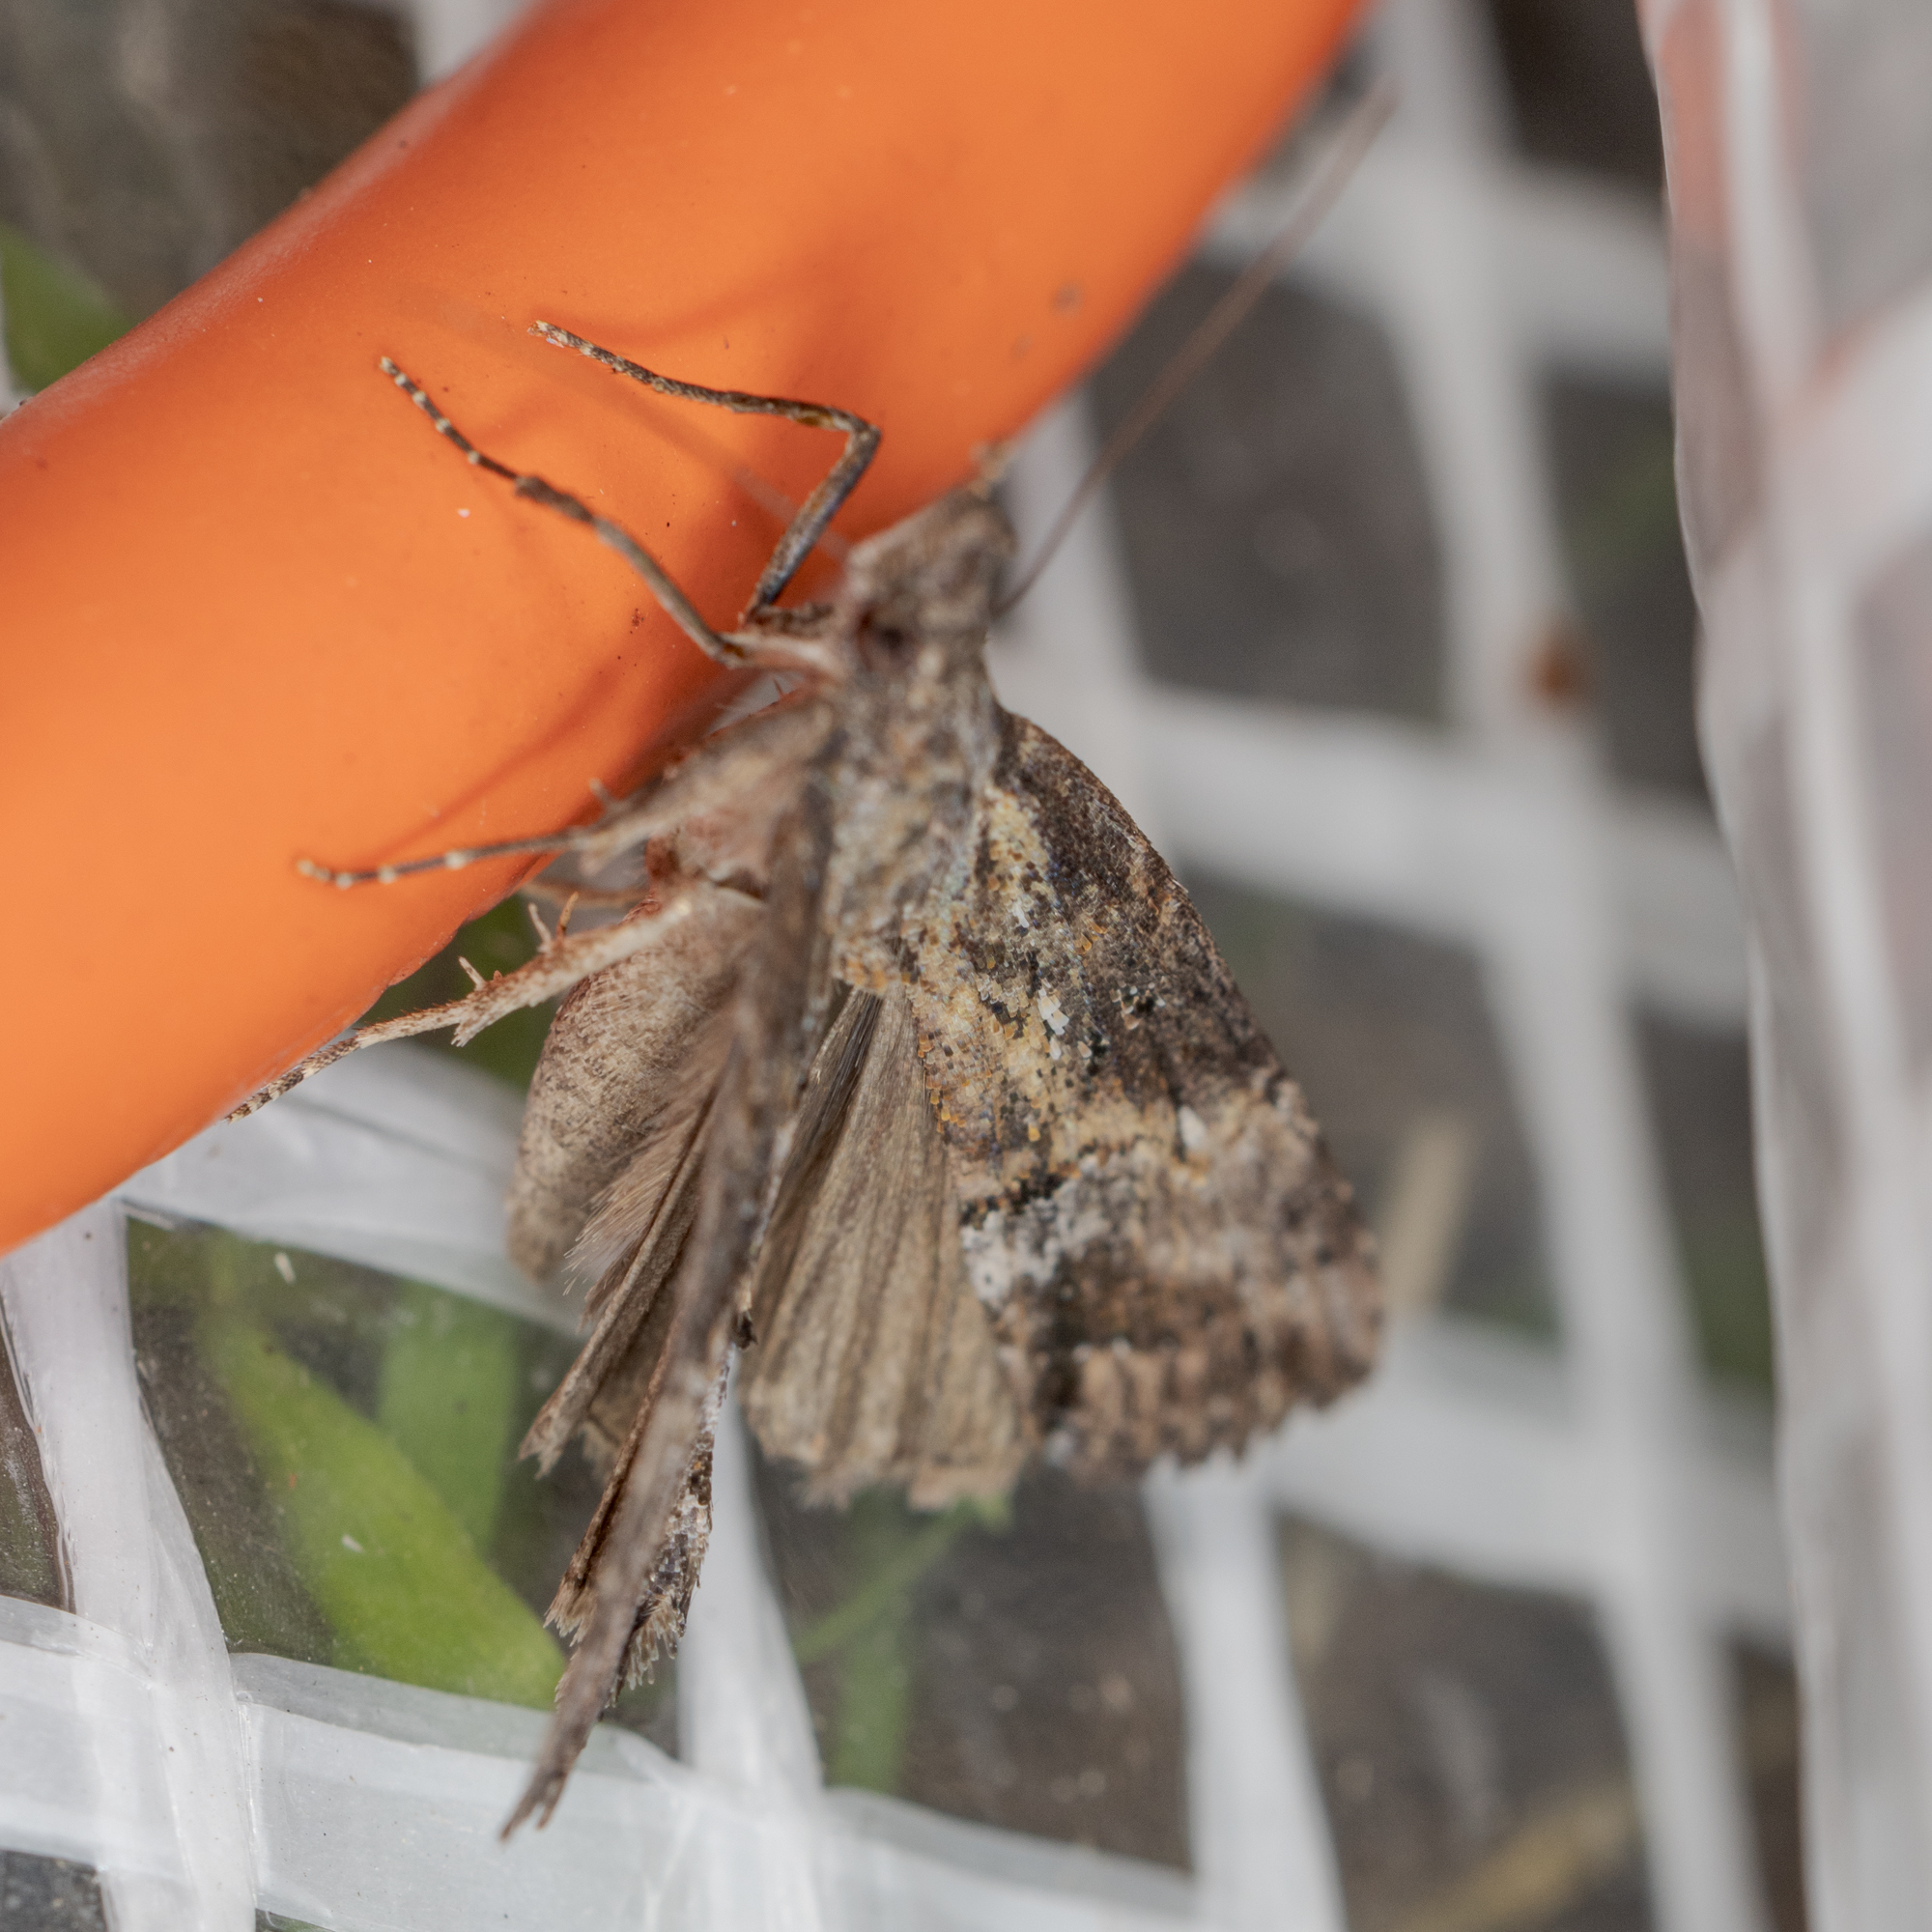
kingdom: Animalia
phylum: Arthropoda
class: Insecta
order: Lepidoptera
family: Erebidae
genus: Hypena
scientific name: Hypena scabra
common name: Green cloverworm
